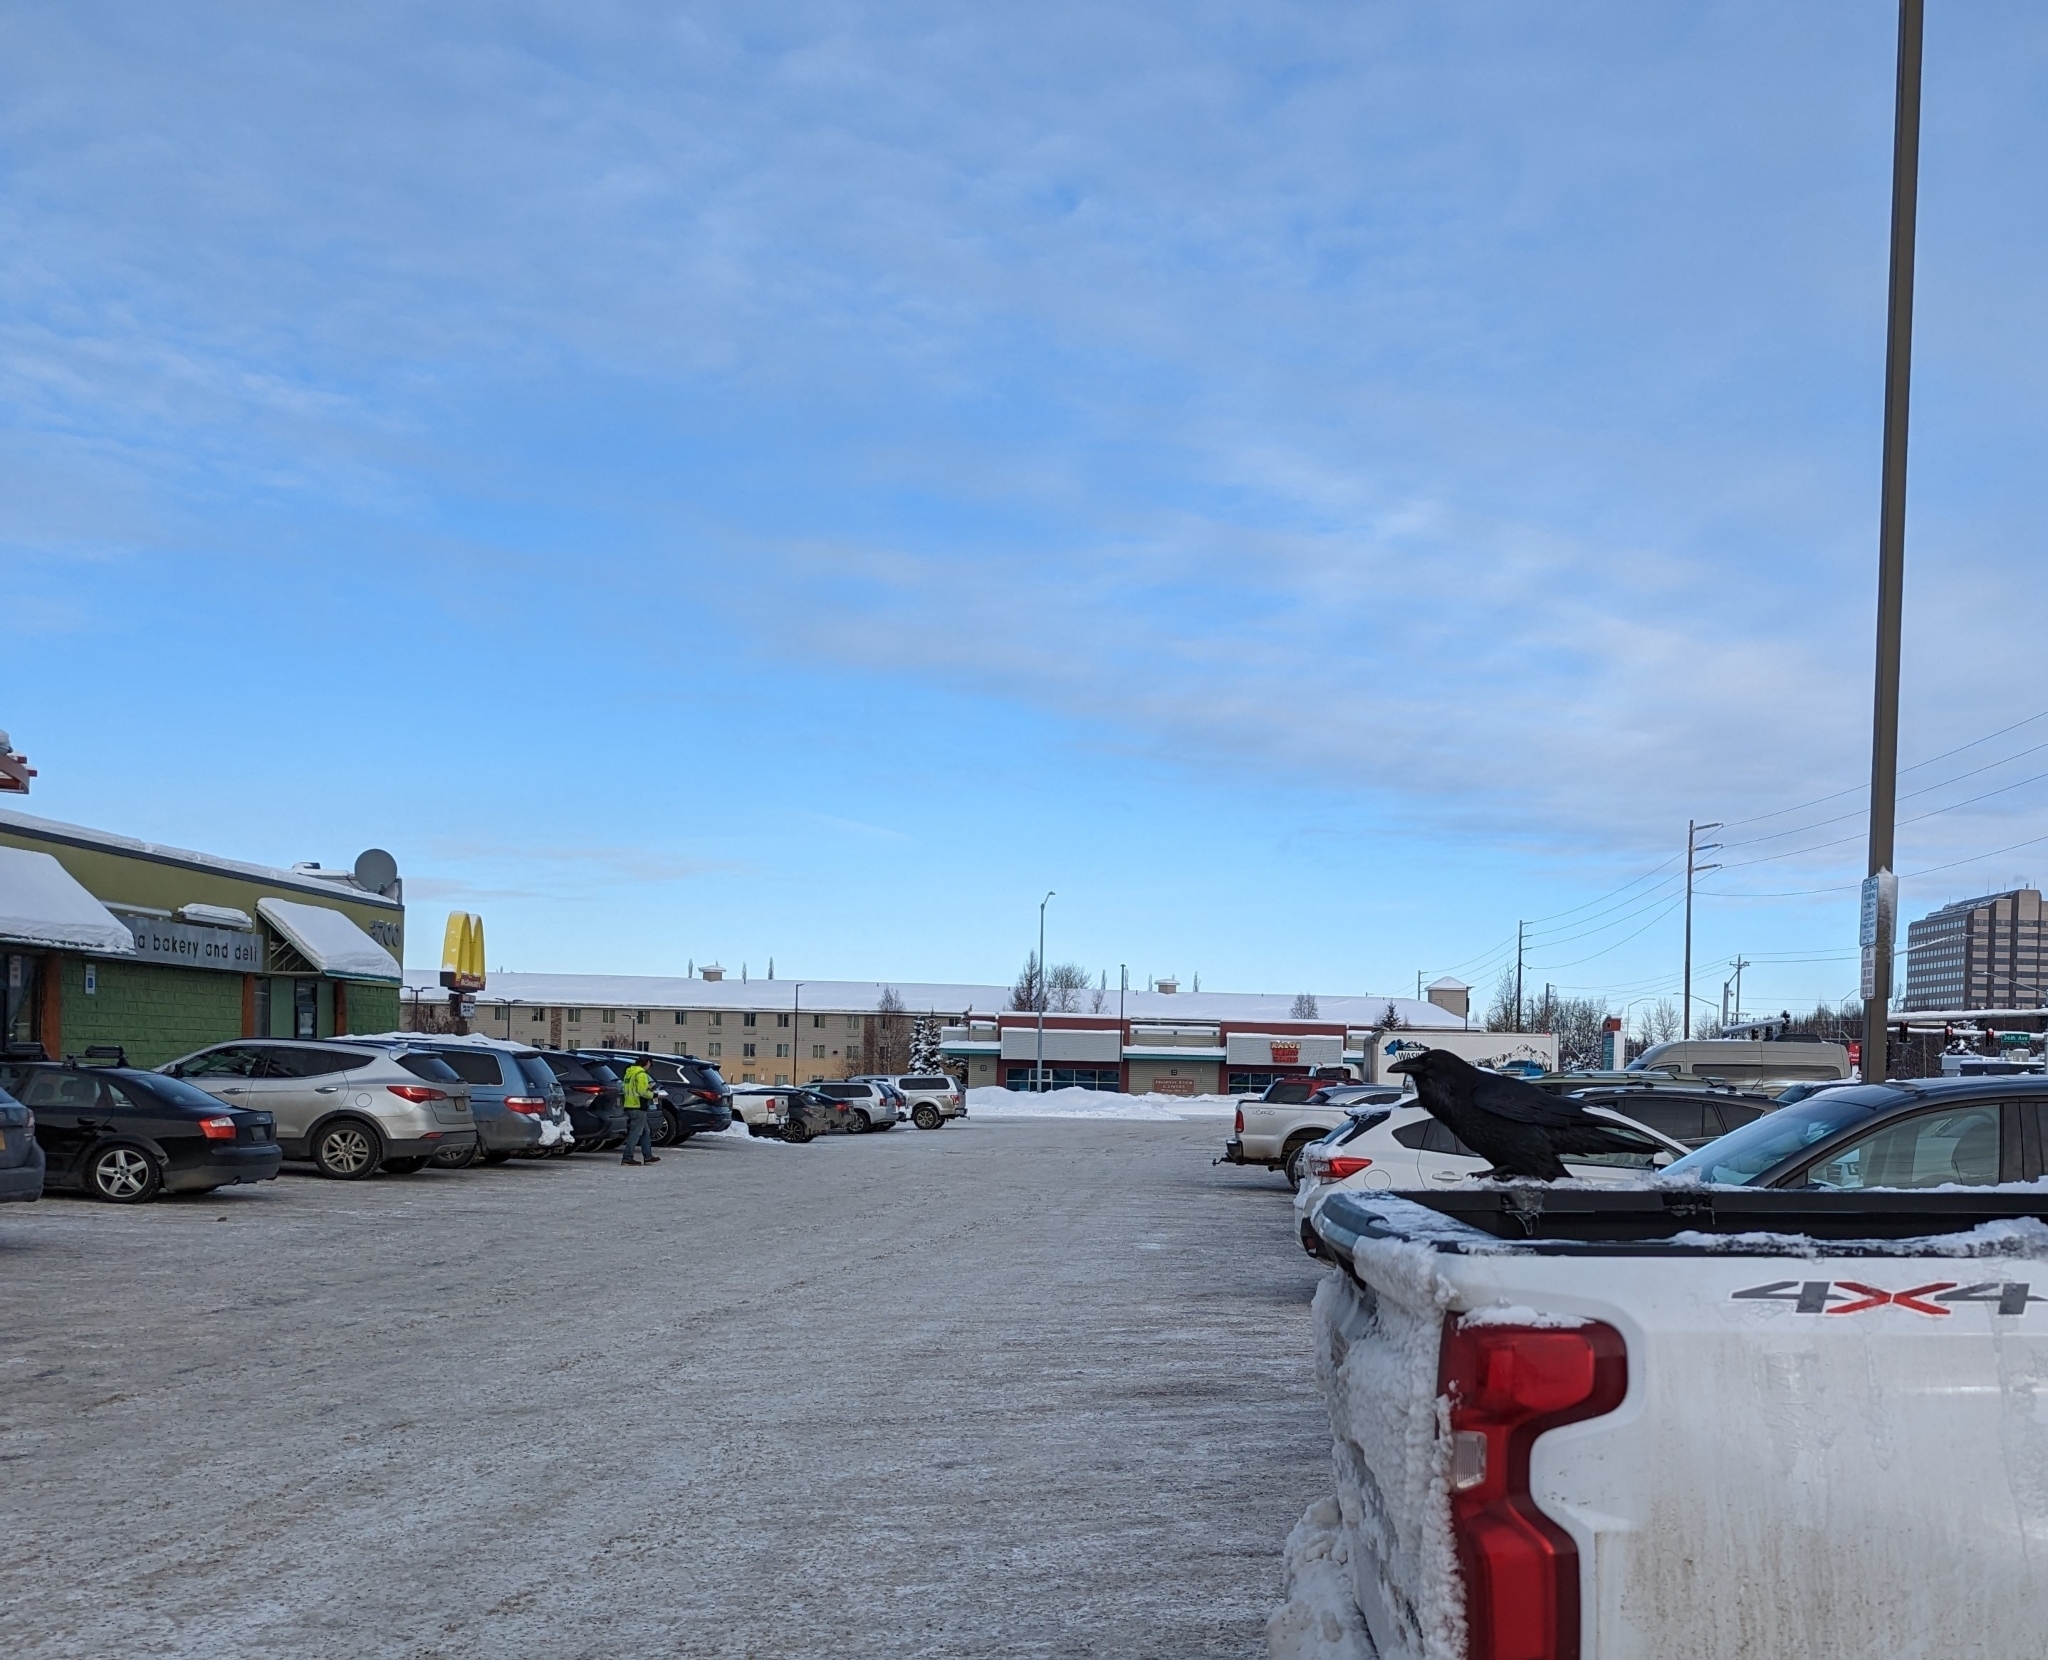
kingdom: Animalia
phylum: Chordata
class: Aves
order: Passeriformes
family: Corvidae
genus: Corvus
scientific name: Corvus corax
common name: Common raven
